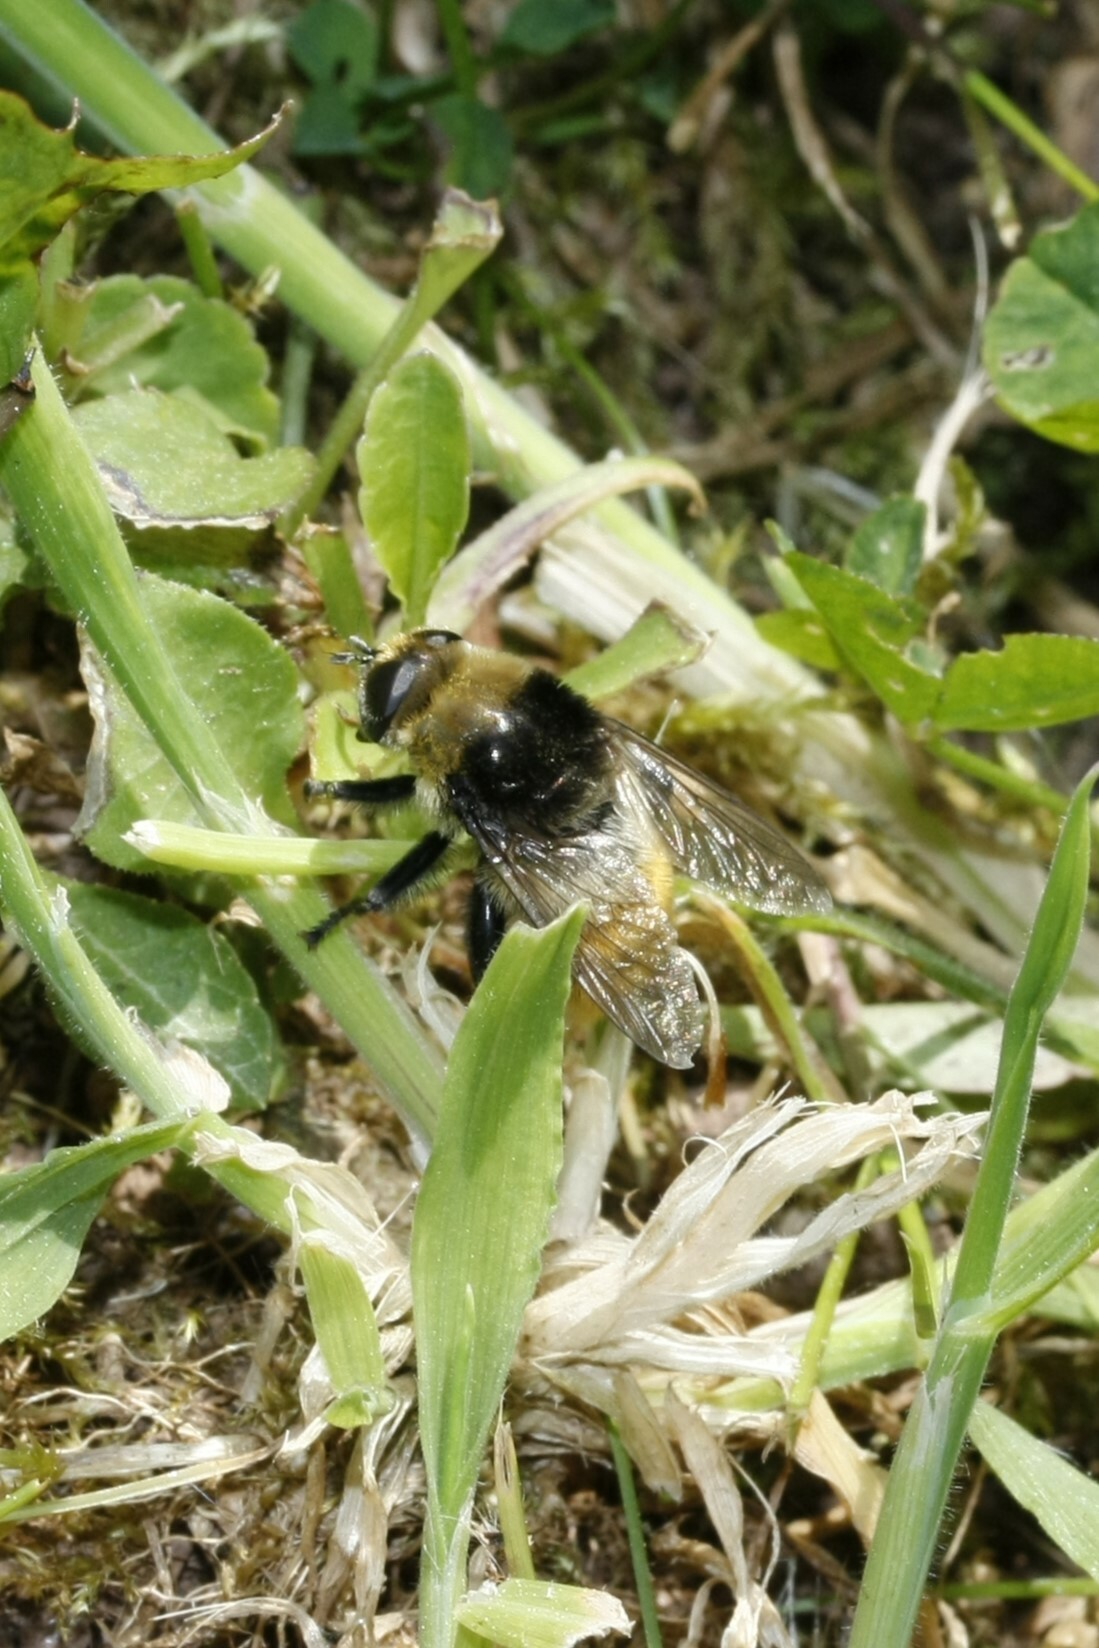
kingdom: Animalia
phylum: Arthropoda
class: Insecta
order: Diptera
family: Syrphidae
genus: Merodon
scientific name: Merodon equestris
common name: Greater bulb-fly
